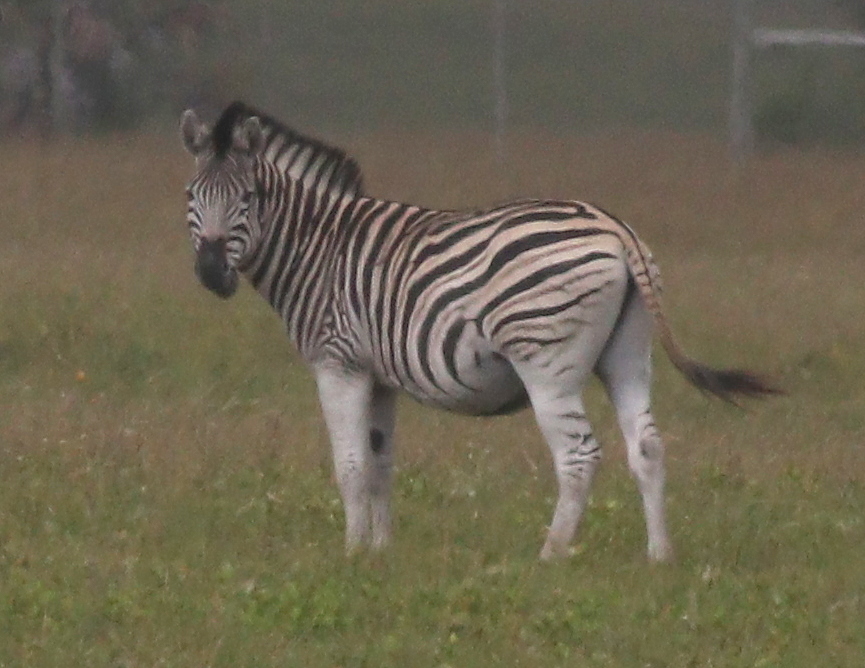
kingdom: Animalia
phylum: Chordata
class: Mammalia
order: Perissodactyla
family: Equidae
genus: Equus
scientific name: Equus quagga
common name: Plains zebra
